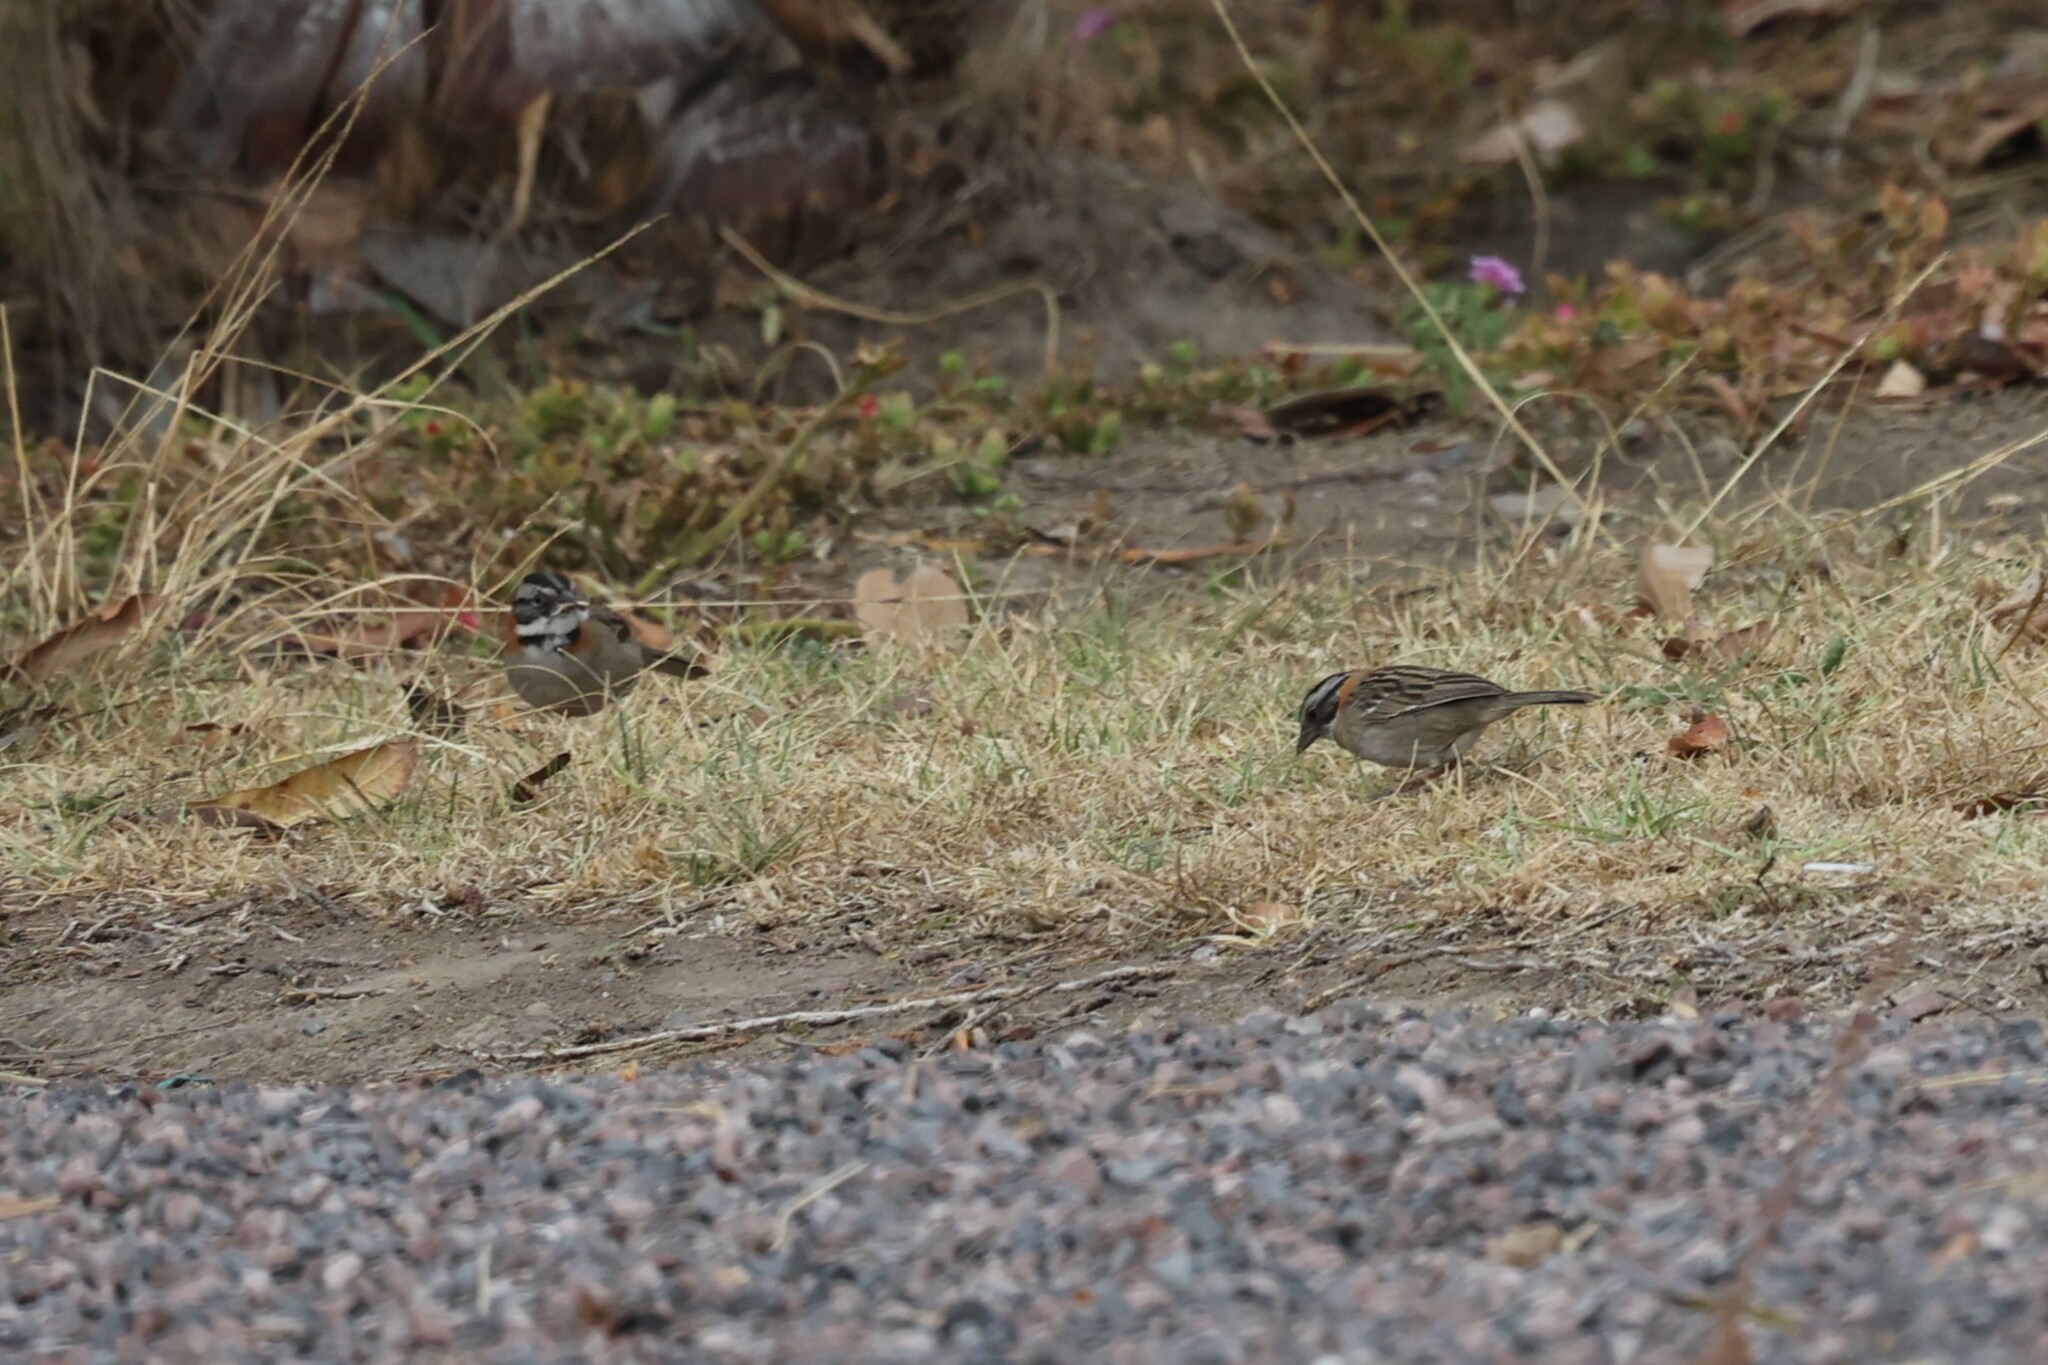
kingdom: Animalia
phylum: Chordata
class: Aves
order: Passeriformes
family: Passerellidae
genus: Zonotrichia
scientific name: Zonotrichia capensis
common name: Rufous-collared sparrow
